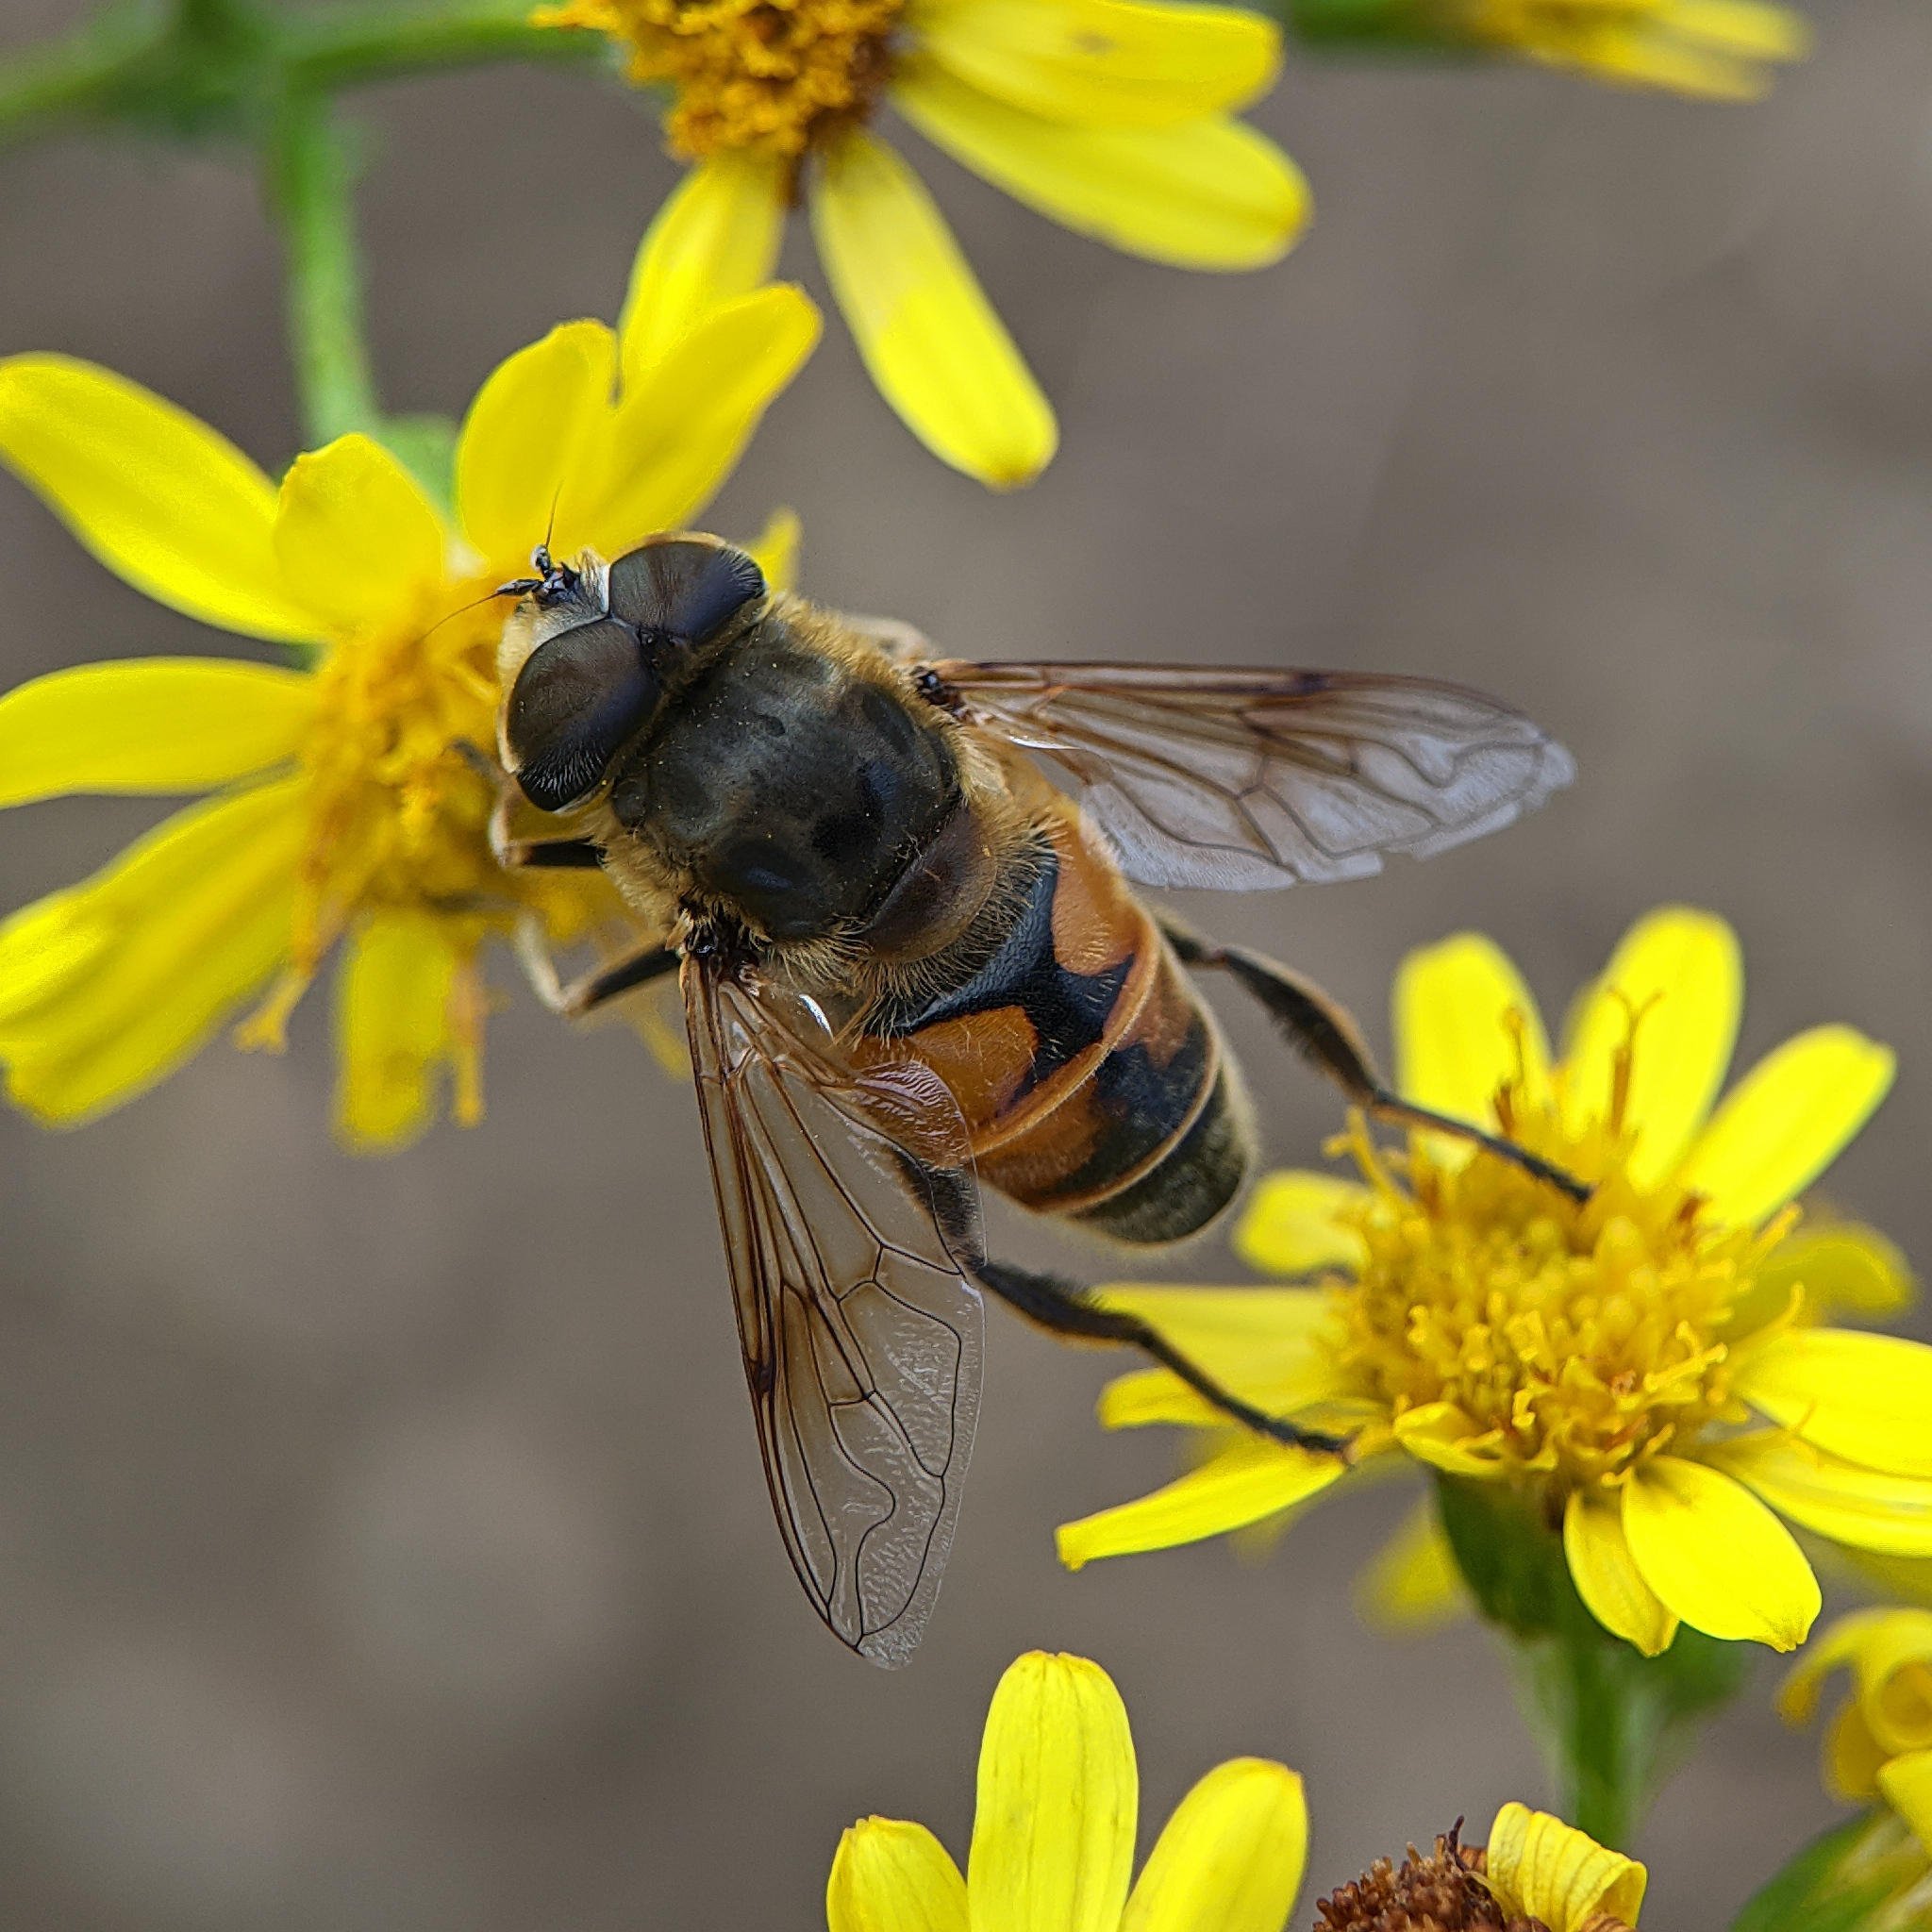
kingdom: Animalia
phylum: Arthropoda
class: Insecta
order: Diptera
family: Syrphidae
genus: Eristalis
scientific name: Eristalis tenax
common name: Drone fly
